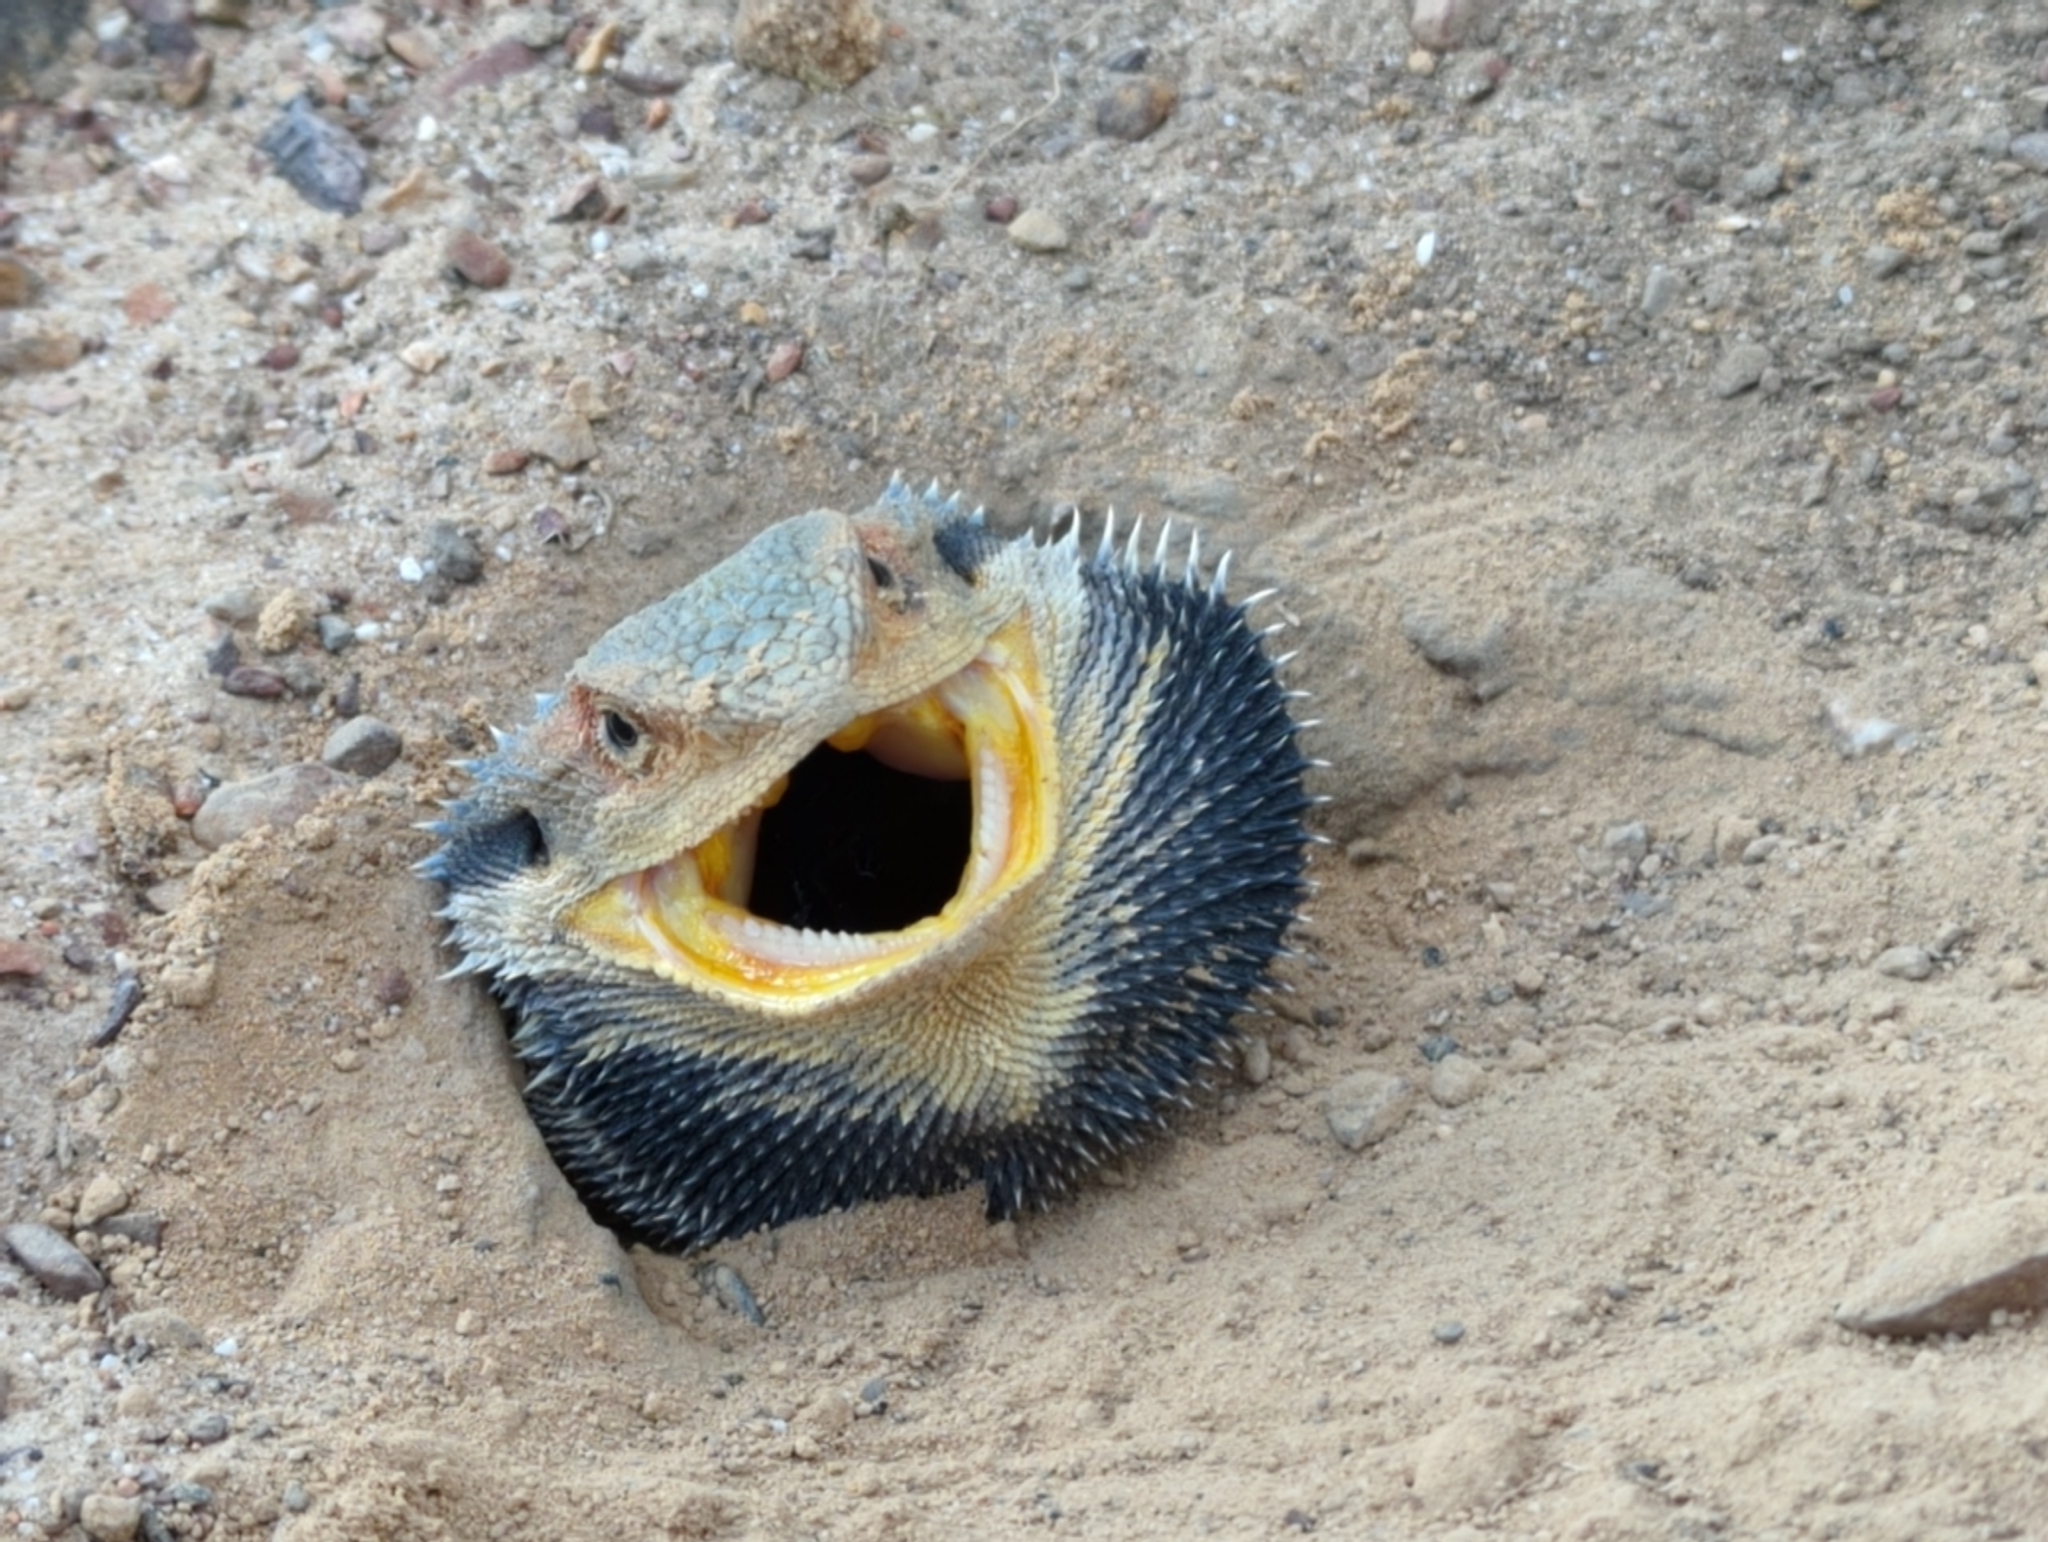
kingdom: Animalia
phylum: Chordata
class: Squamata
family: Agamidae
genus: Pogona
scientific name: Pogona barbata
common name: Bearded dragon
